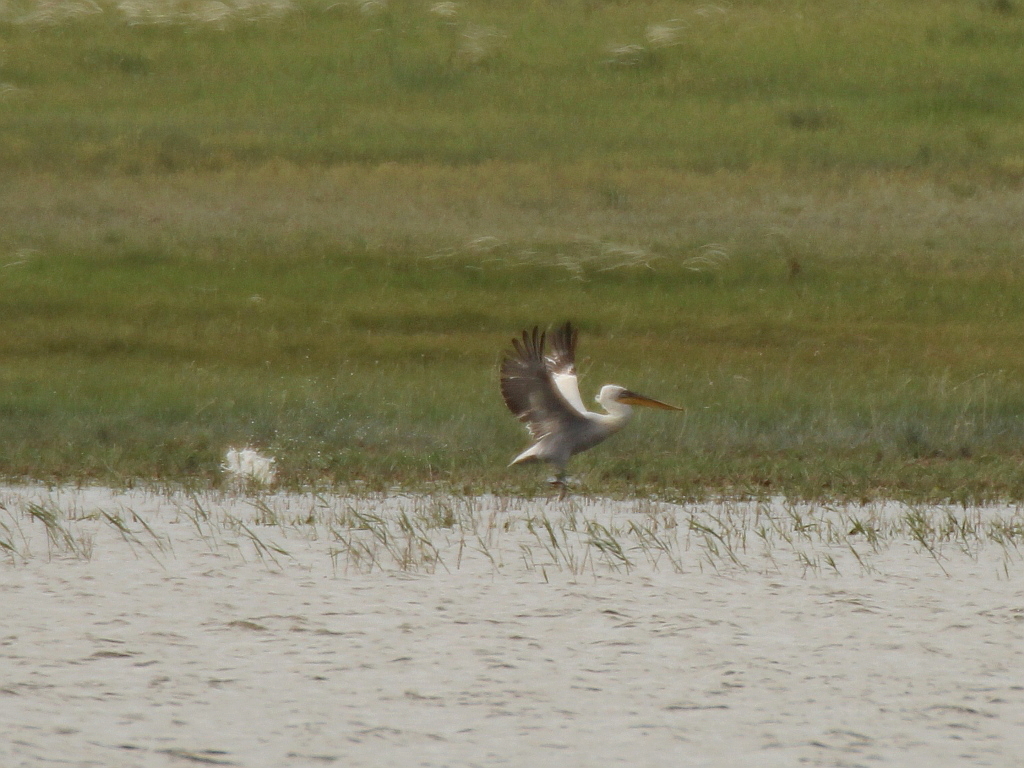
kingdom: Animalia
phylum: Chordata
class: Aves
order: Pelecaniformes
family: Pelecanidae
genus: Pelecanus
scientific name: Pelecanus crispus
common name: Dalmatian pelican
